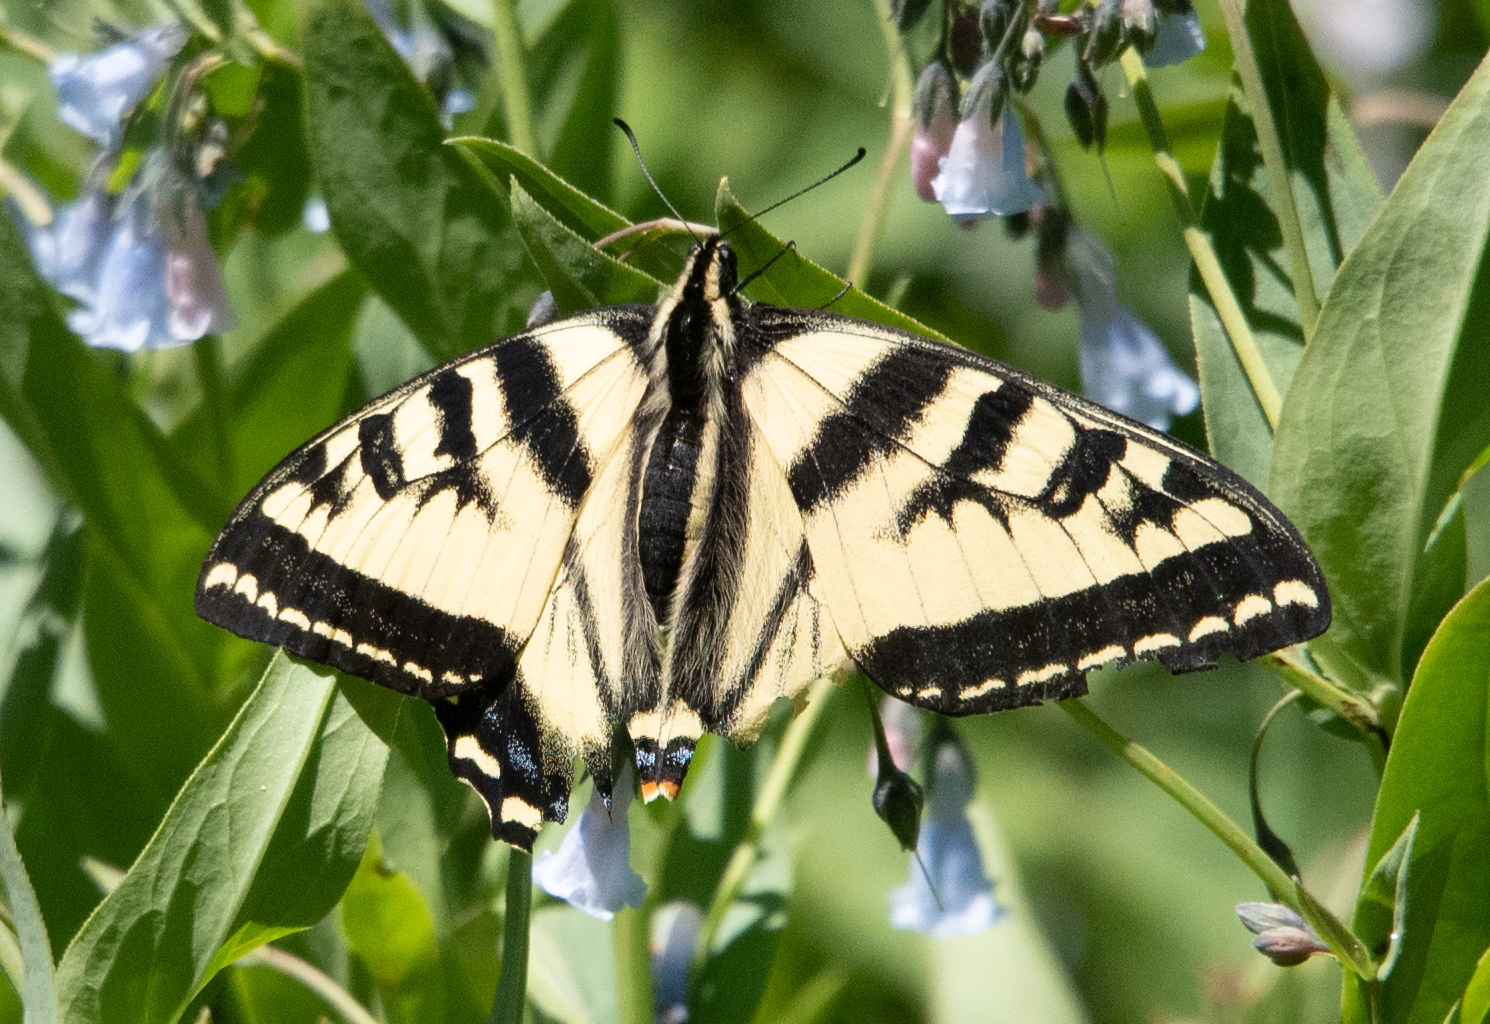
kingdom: Animalia
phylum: Arthropoda
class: Insecta
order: Lepidoptera
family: Papilionidae
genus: Papilio
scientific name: Papilio rutulus
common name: Western tiger swallowtail
